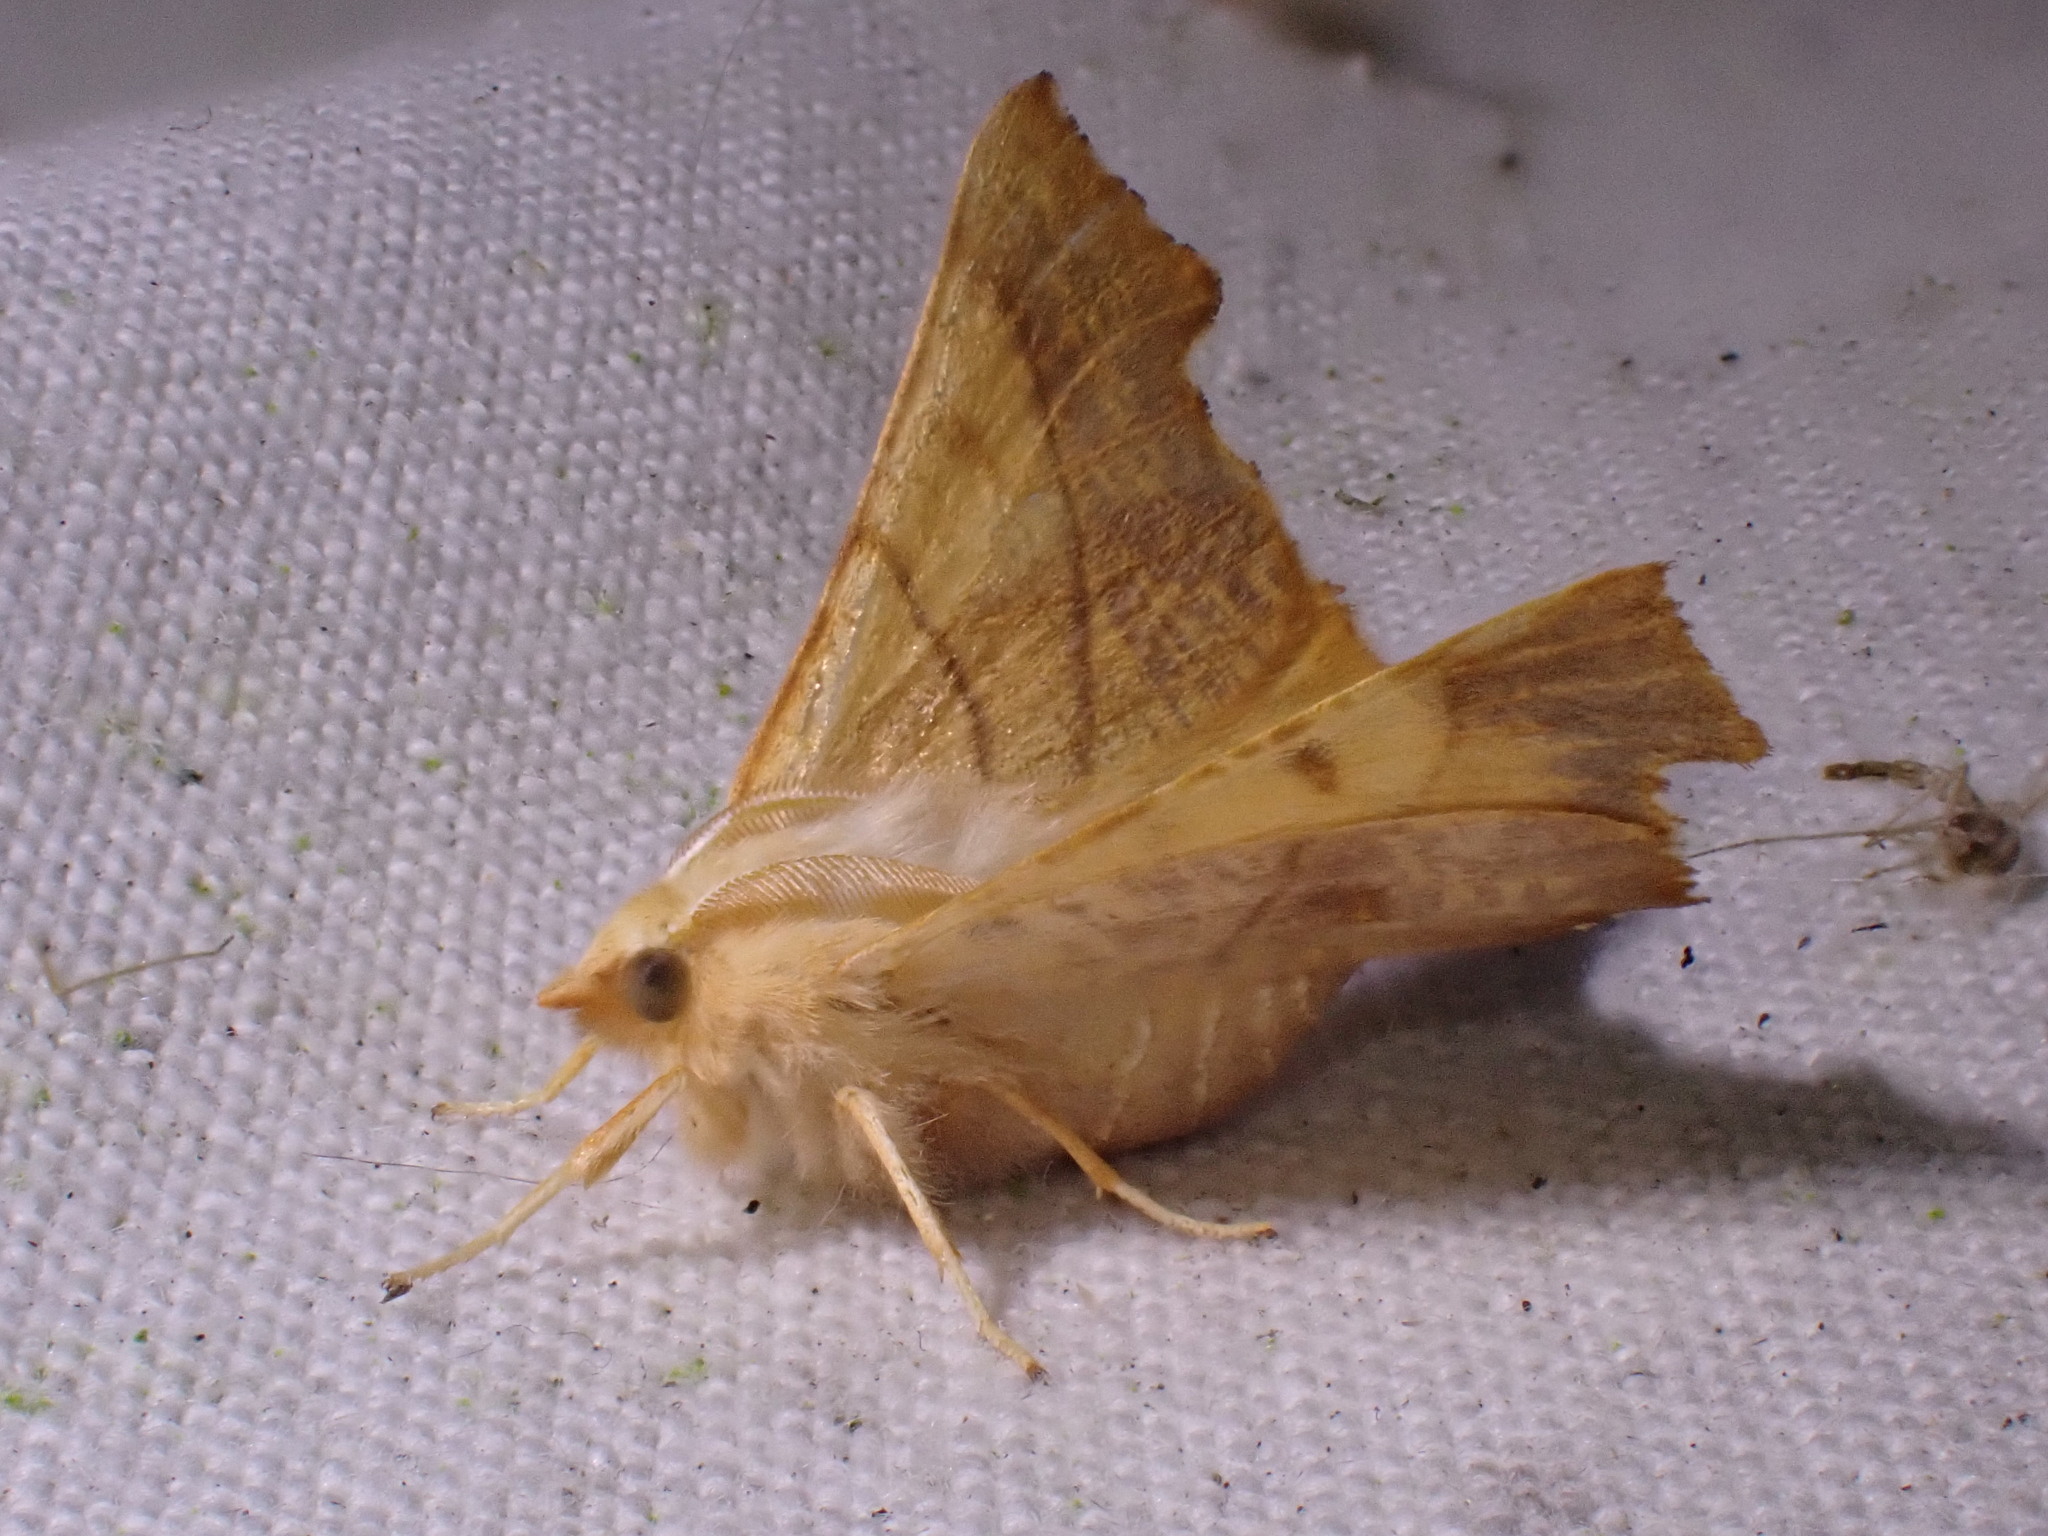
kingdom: Animalia
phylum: Arthropoda
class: Insecta
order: Lepidoptera
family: Geometridae
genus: Ennomos
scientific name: Ennomos fuscantaria
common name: Dusky thorn
